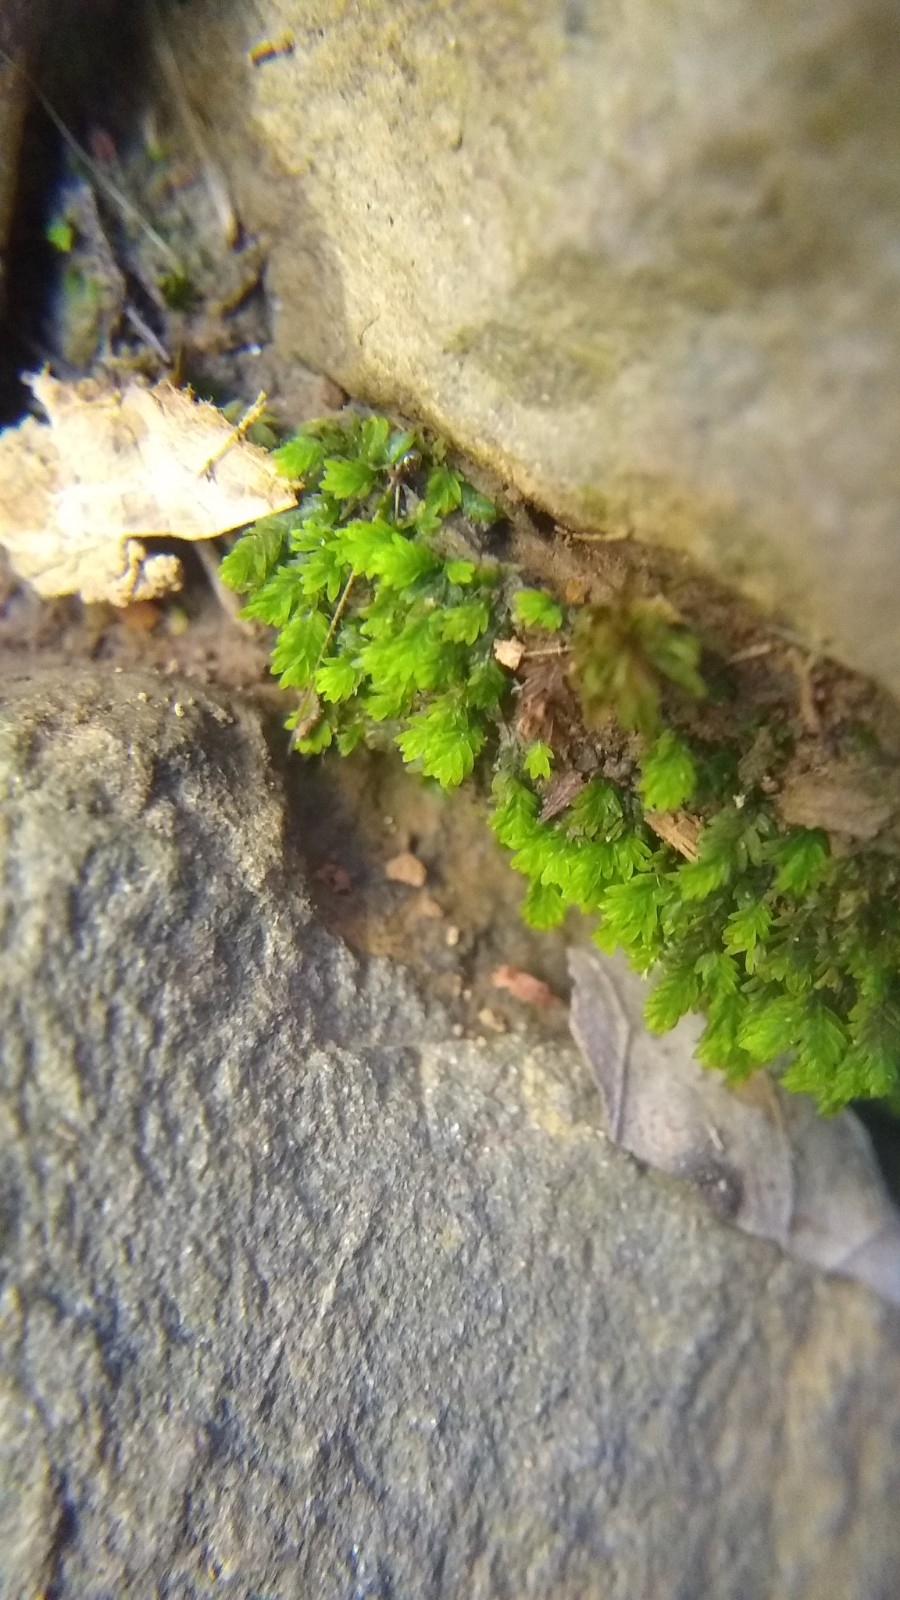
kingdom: Plantae
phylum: Bryophyta
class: Bryopsida
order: Dicranales
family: Fissidentaceae
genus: Fissidens
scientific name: Fissidens taxifolius
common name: Yew-leaved pocket moss
